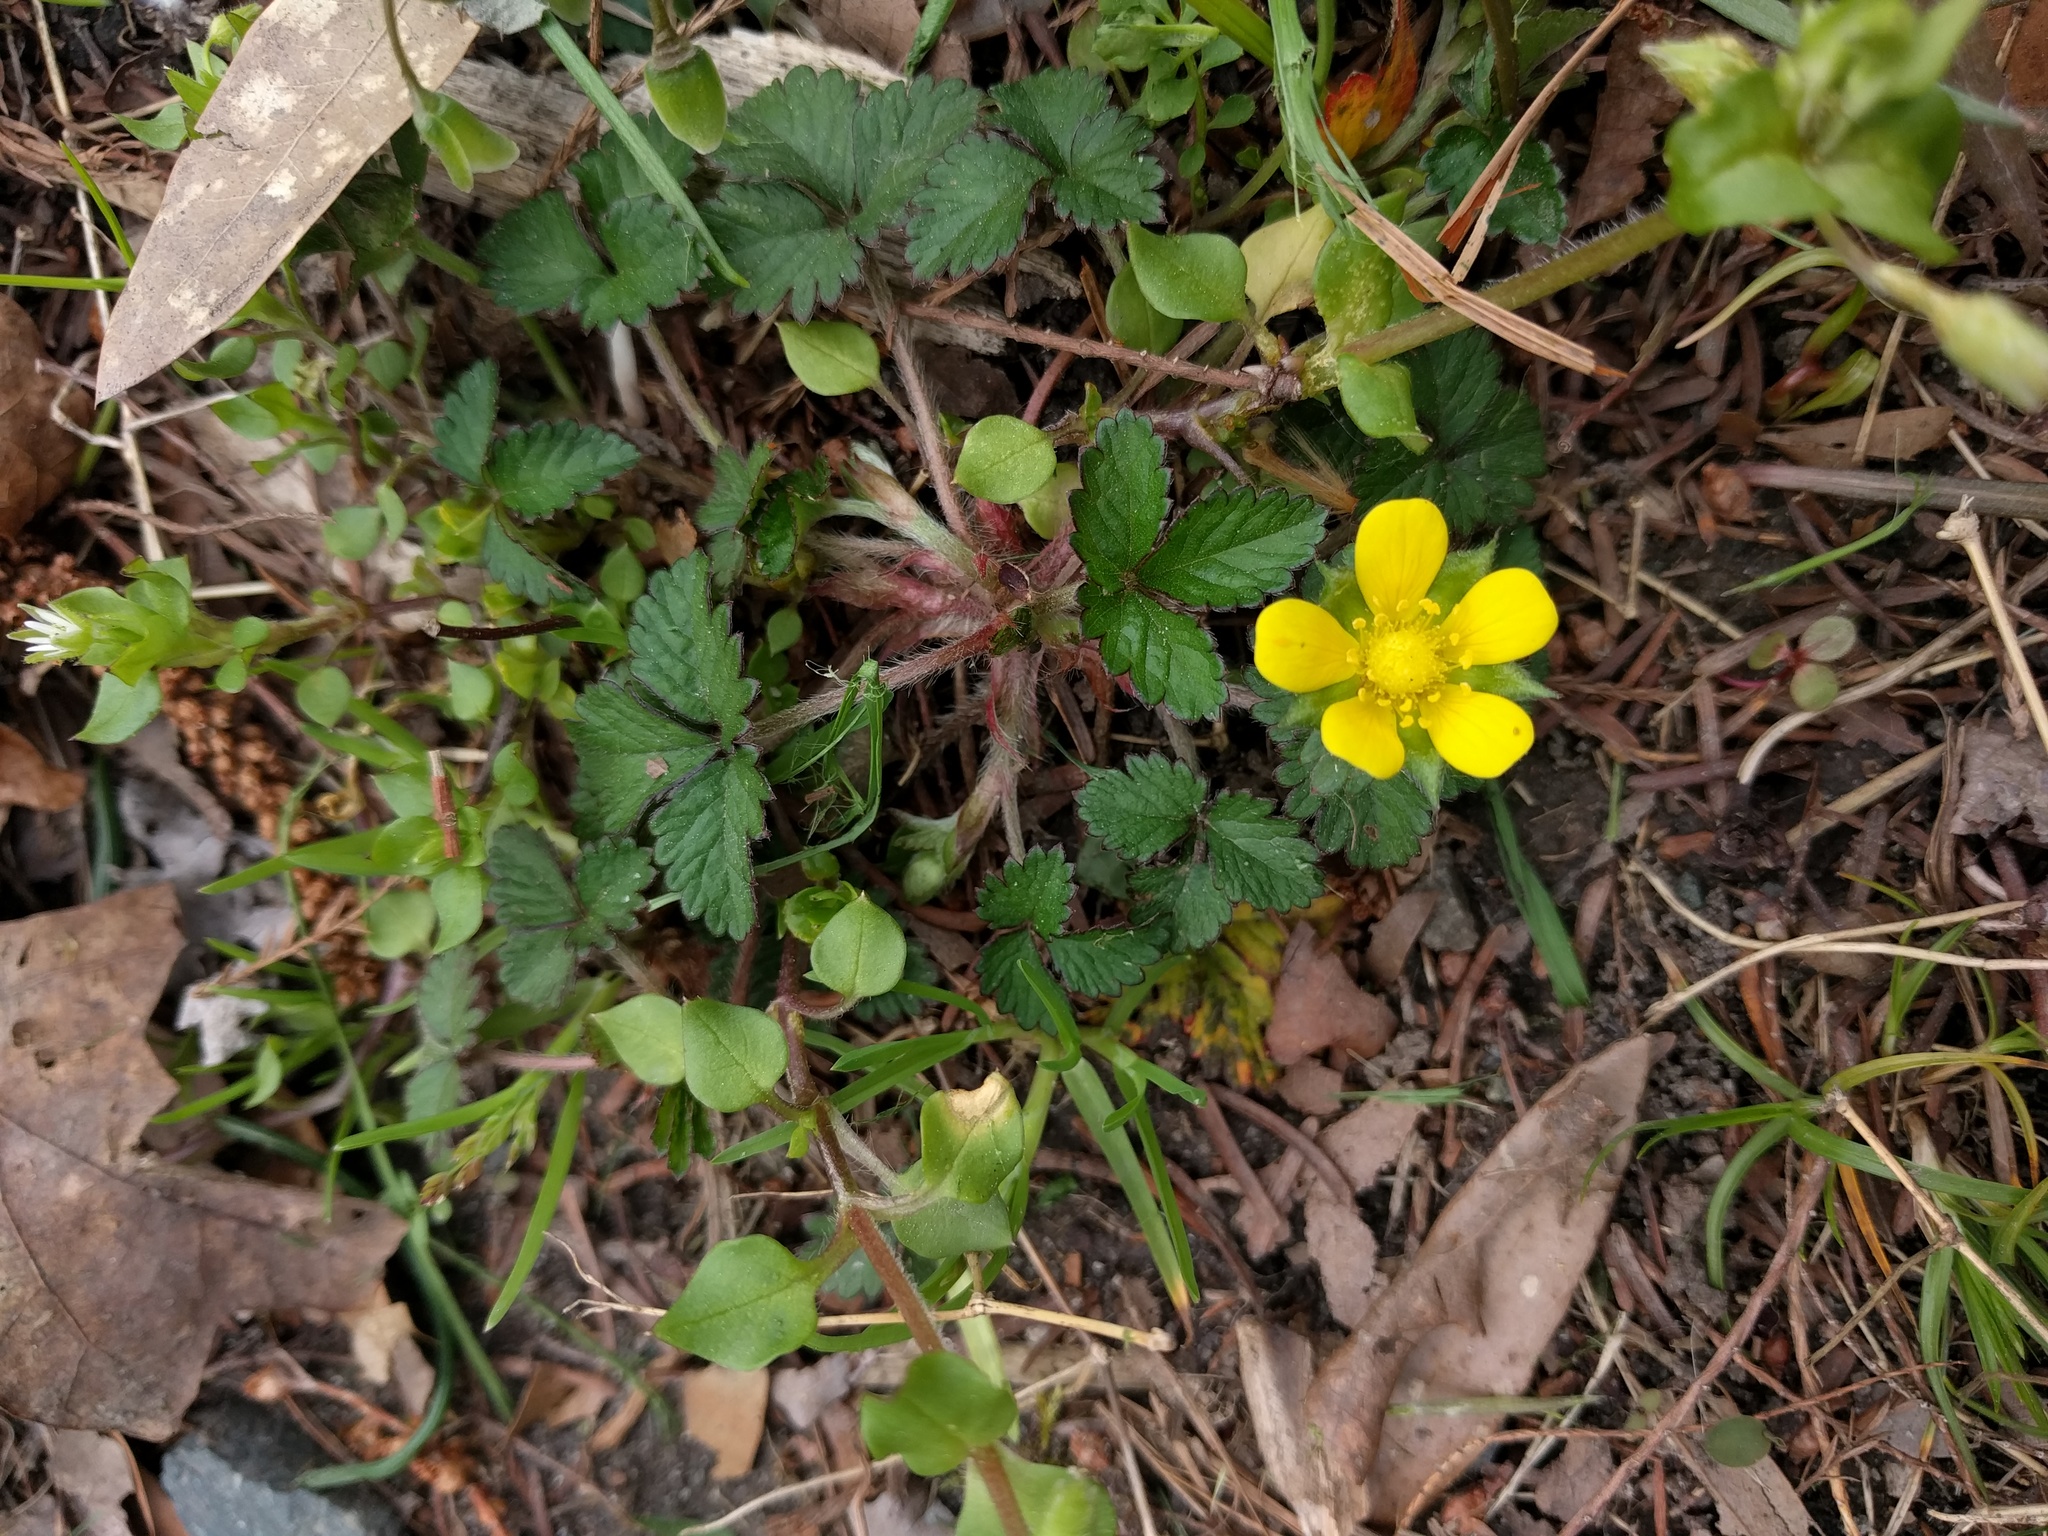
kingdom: Plantae
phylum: Tracheophyta
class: Magnoliopsida
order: Rosales
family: Rosaceae
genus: Potentilla
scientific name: Potentilla indica
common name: Yellow-flowered strawberry
